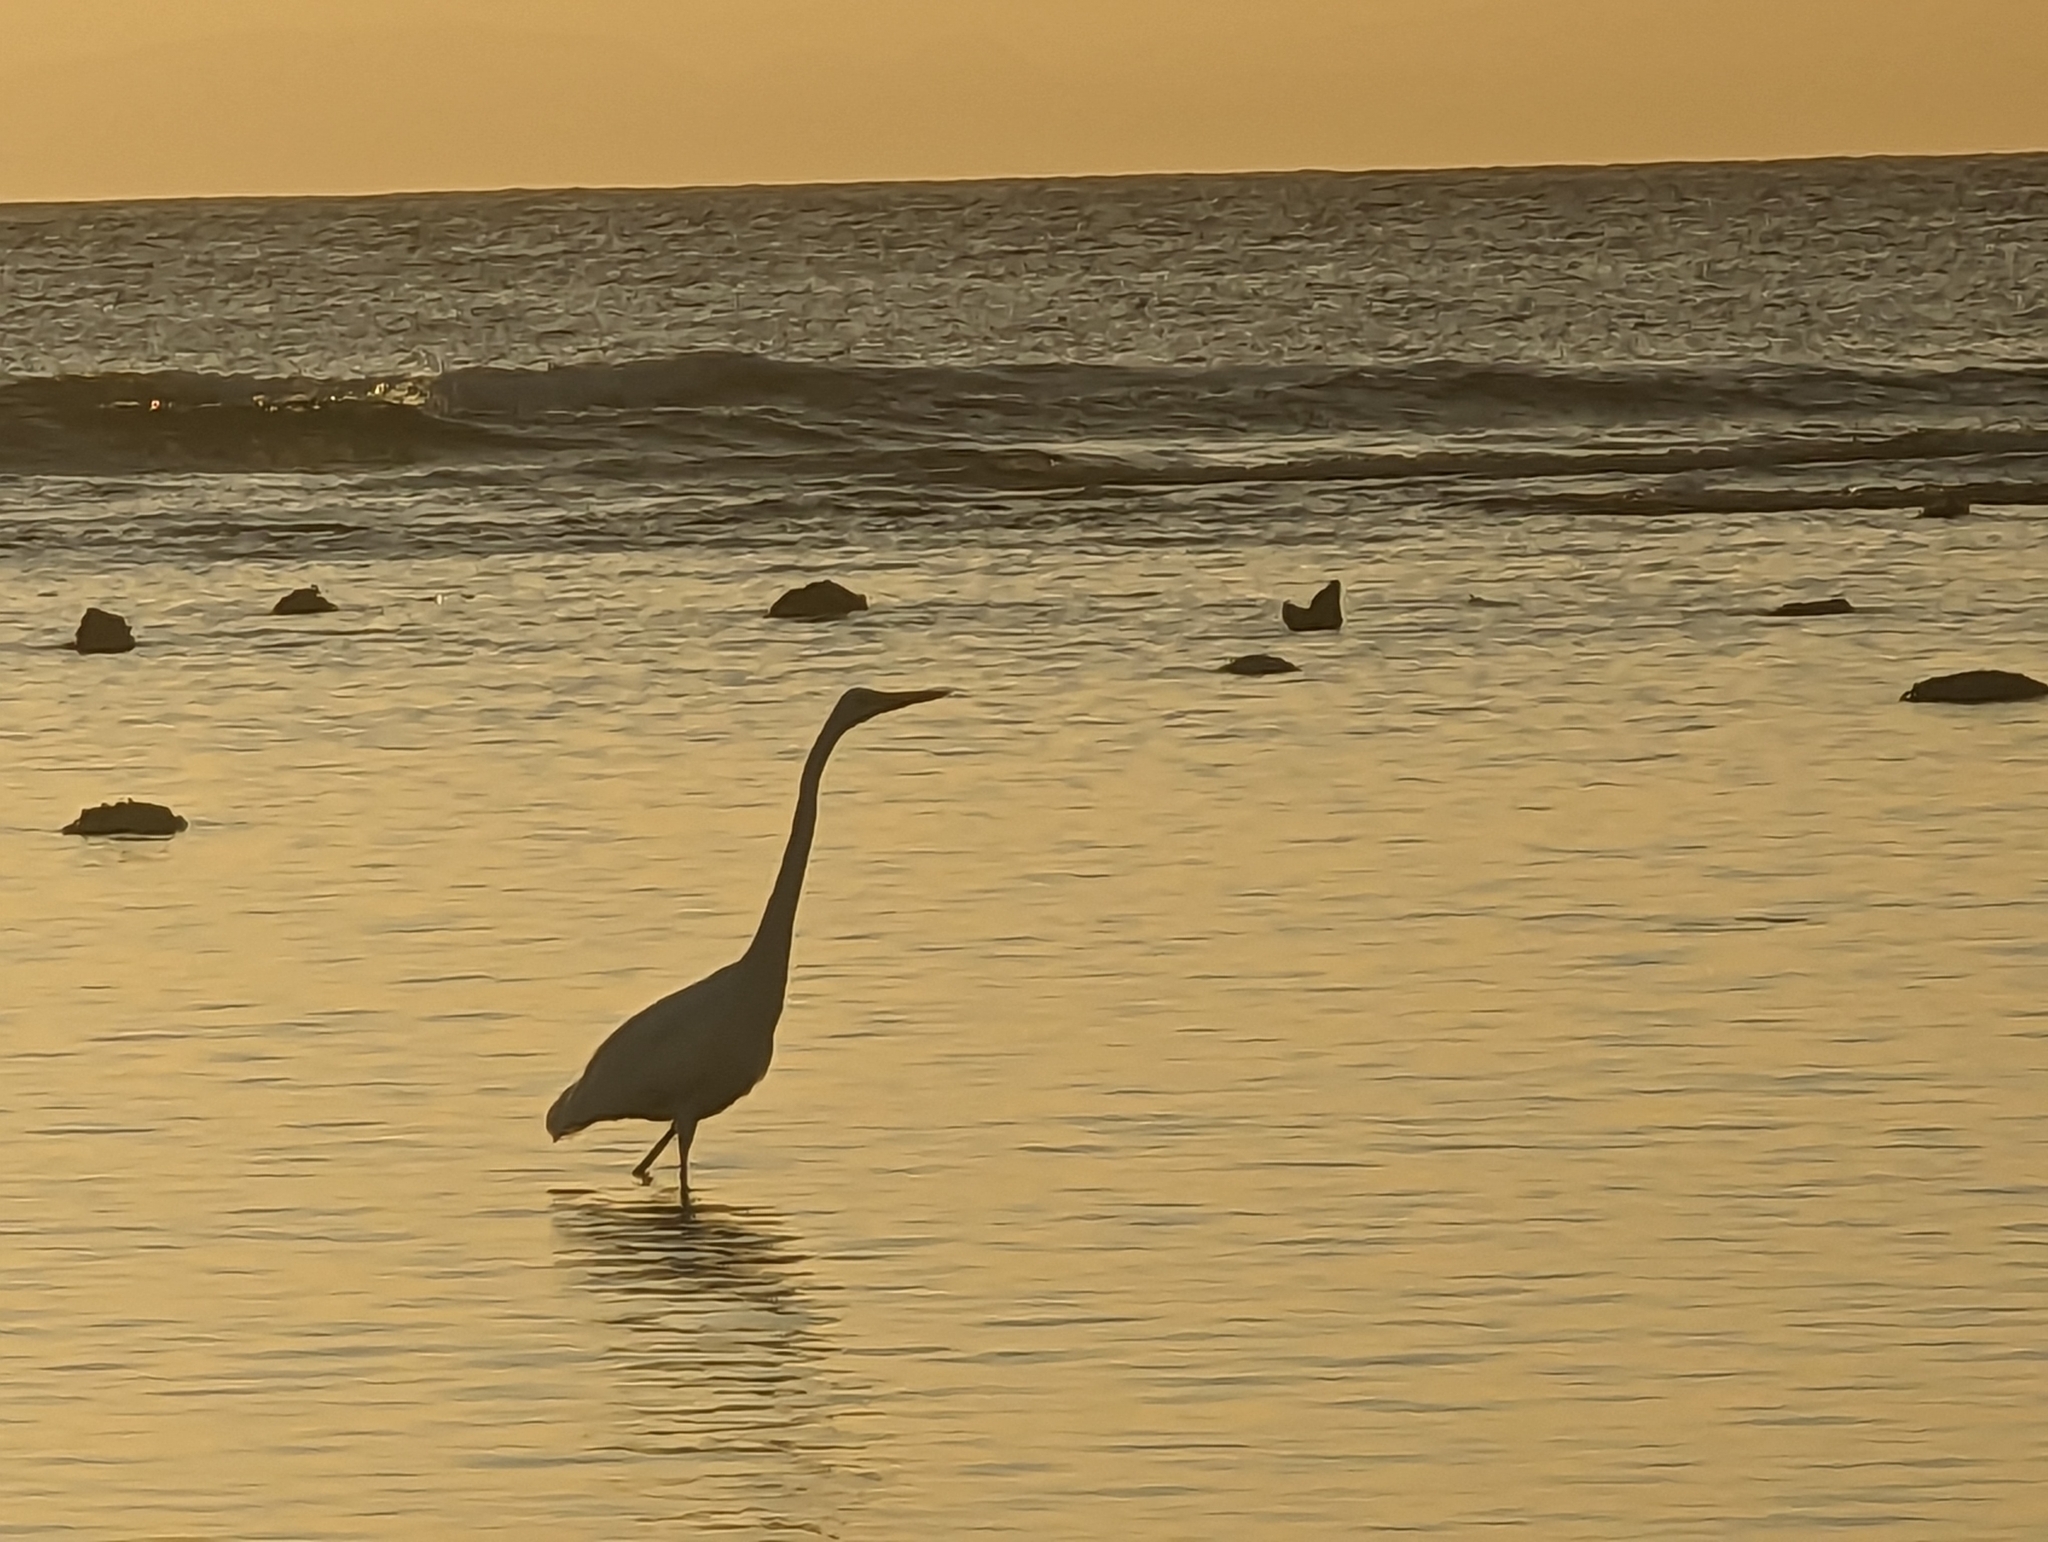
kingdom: Animalia
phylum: Chordata
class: Aves
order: Pelecaniformes
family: Ardeidae
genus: Ardea
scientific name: Ardea alba
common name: Great egret
